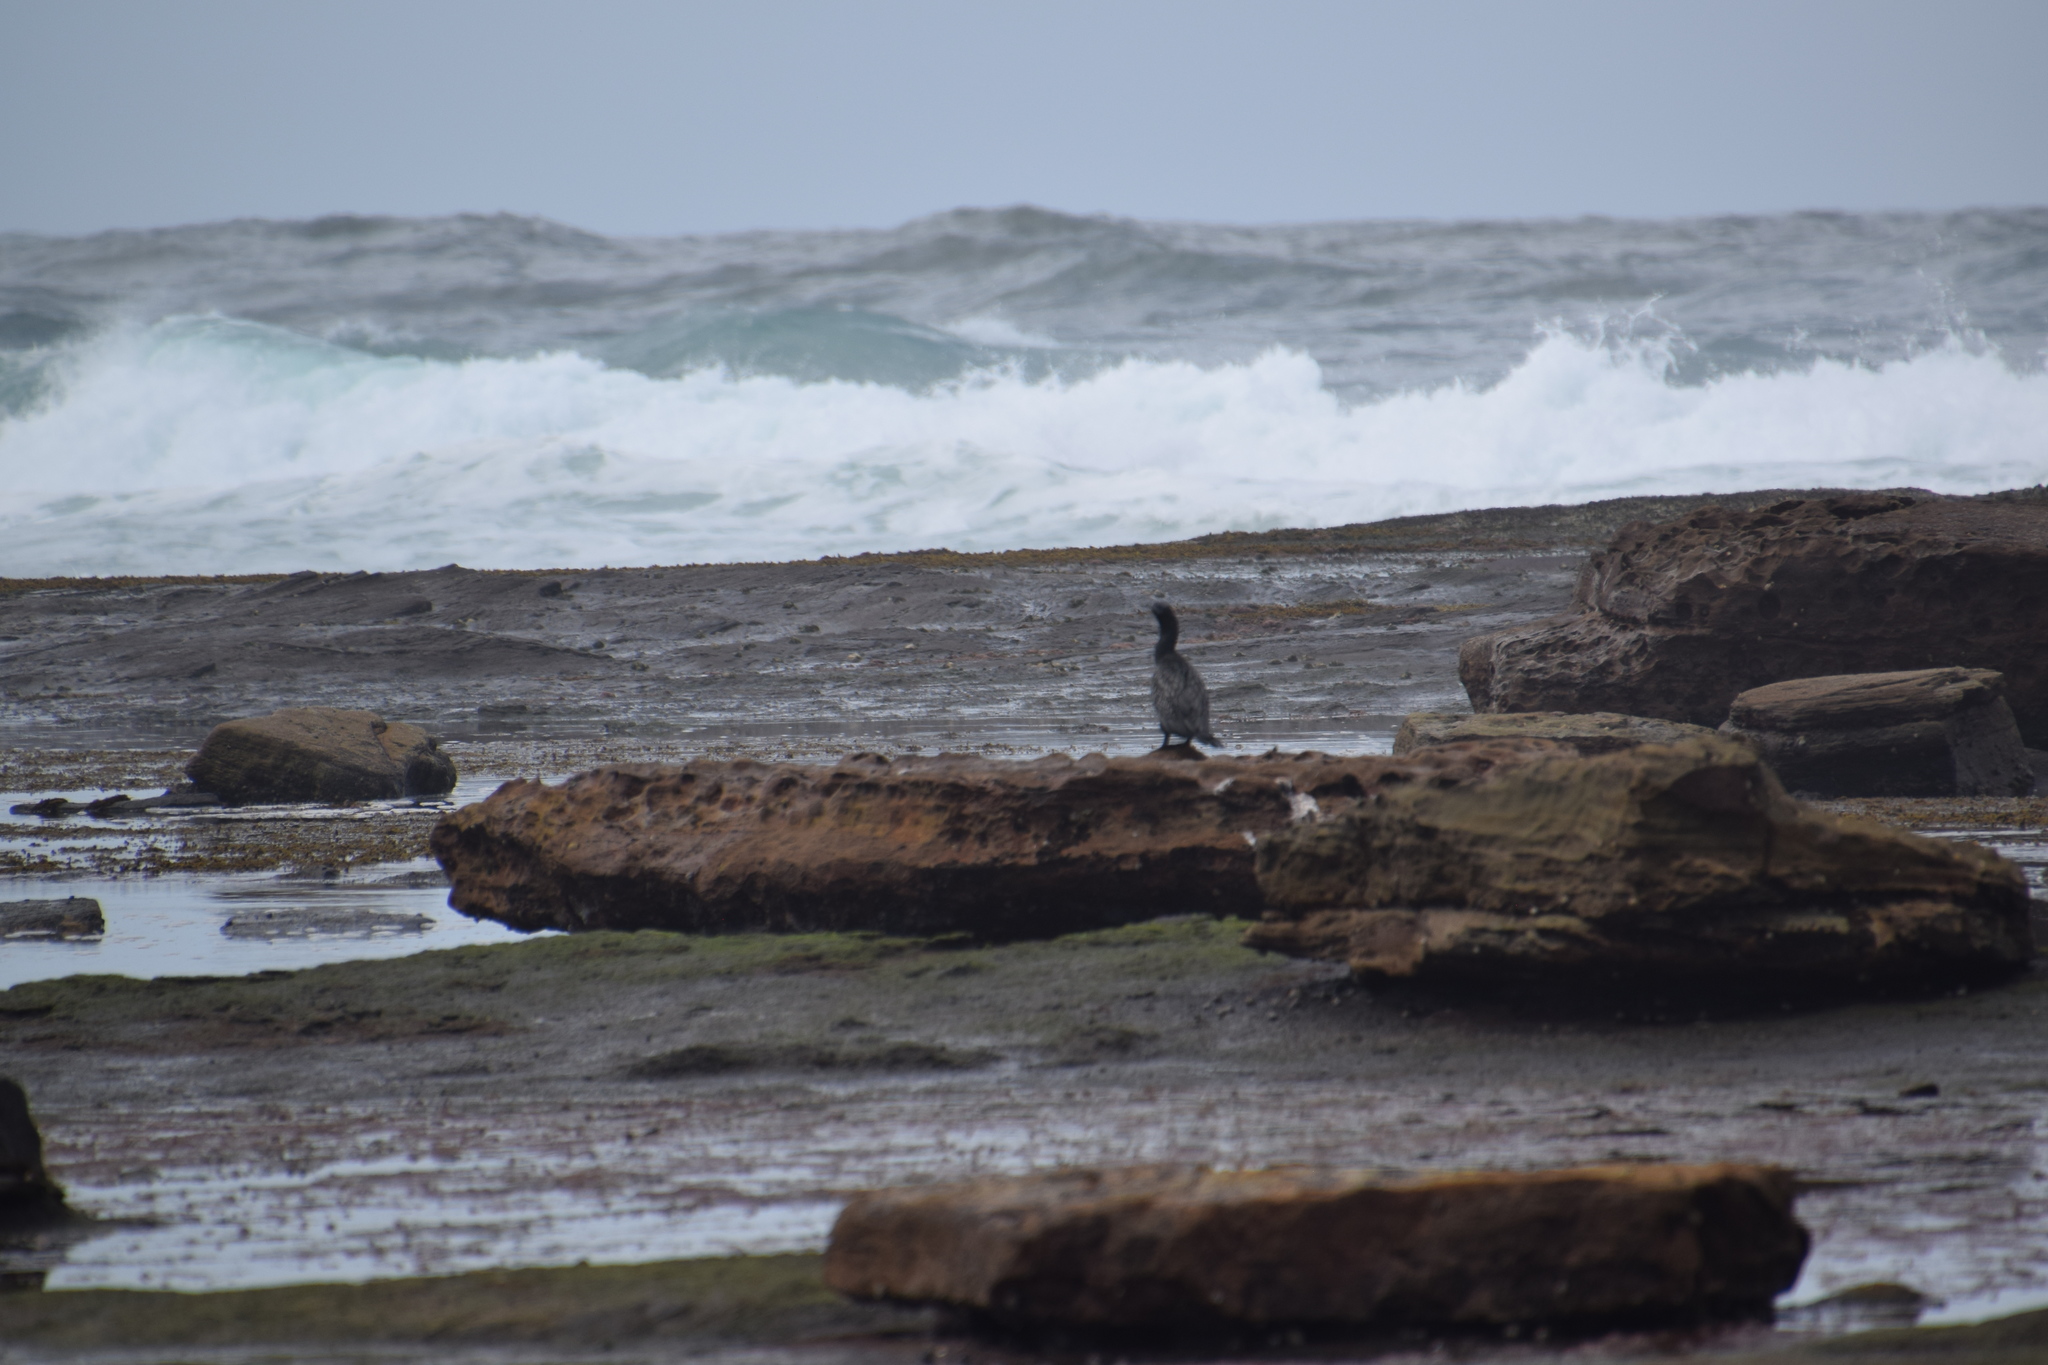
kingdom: Animalia
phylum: Chordata
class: Aves
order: Suliformes
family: Phalacrocoracidae
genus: Phalacrocorax
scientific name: Phalacrocorax sulcirostris
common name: Little black cormorant
